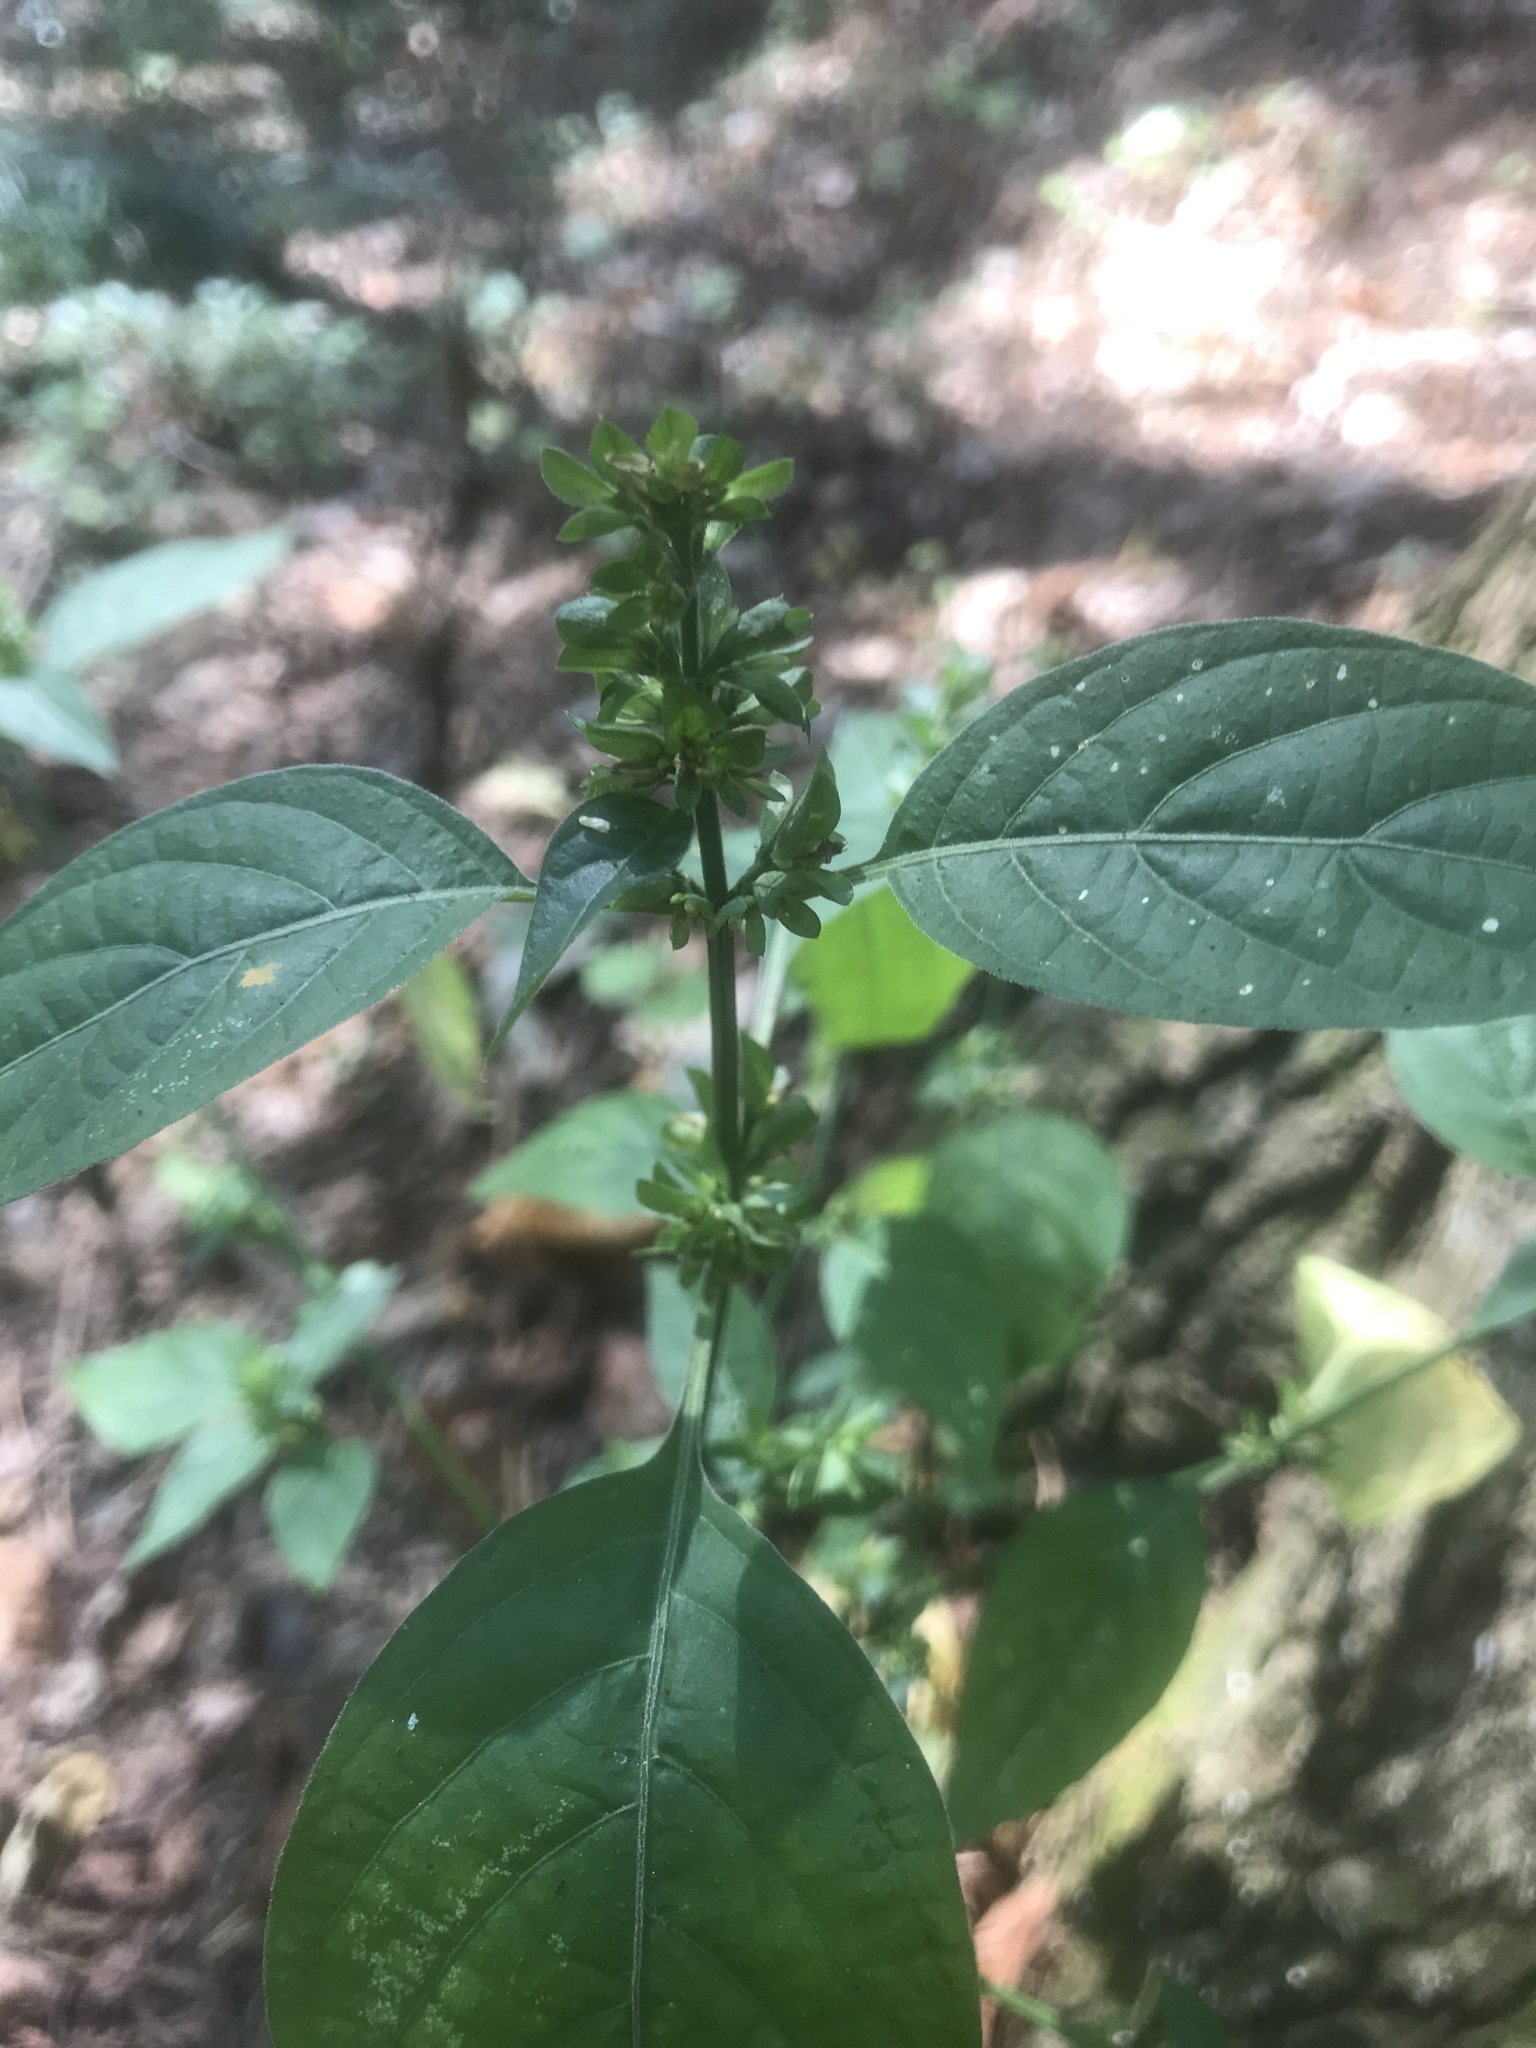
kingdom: Plantae
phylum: Tracheophyta
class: Magnoliopsida
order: Lamiales
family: Acanthaceae
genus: Dicliptera
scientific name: Dicliptera brachiata
